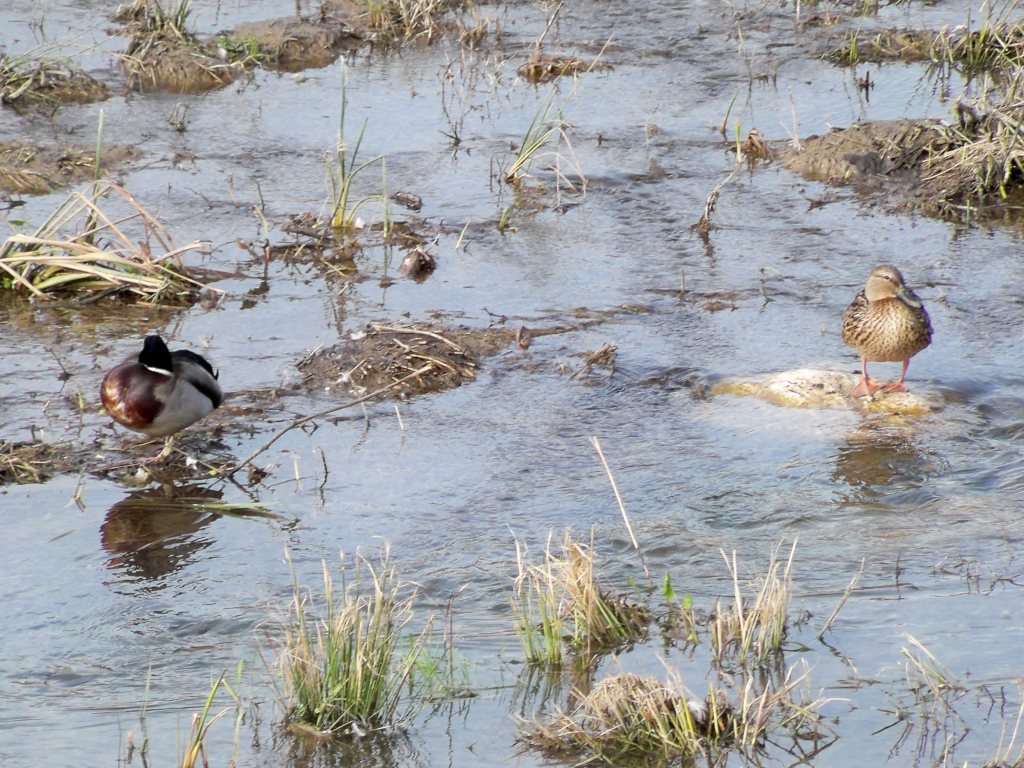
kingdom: Animalia
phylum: Chordata
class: Aves
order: Anseriformes
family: Anatidae
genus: Anas
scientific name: Anas platyrhynchos
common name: Mallard
